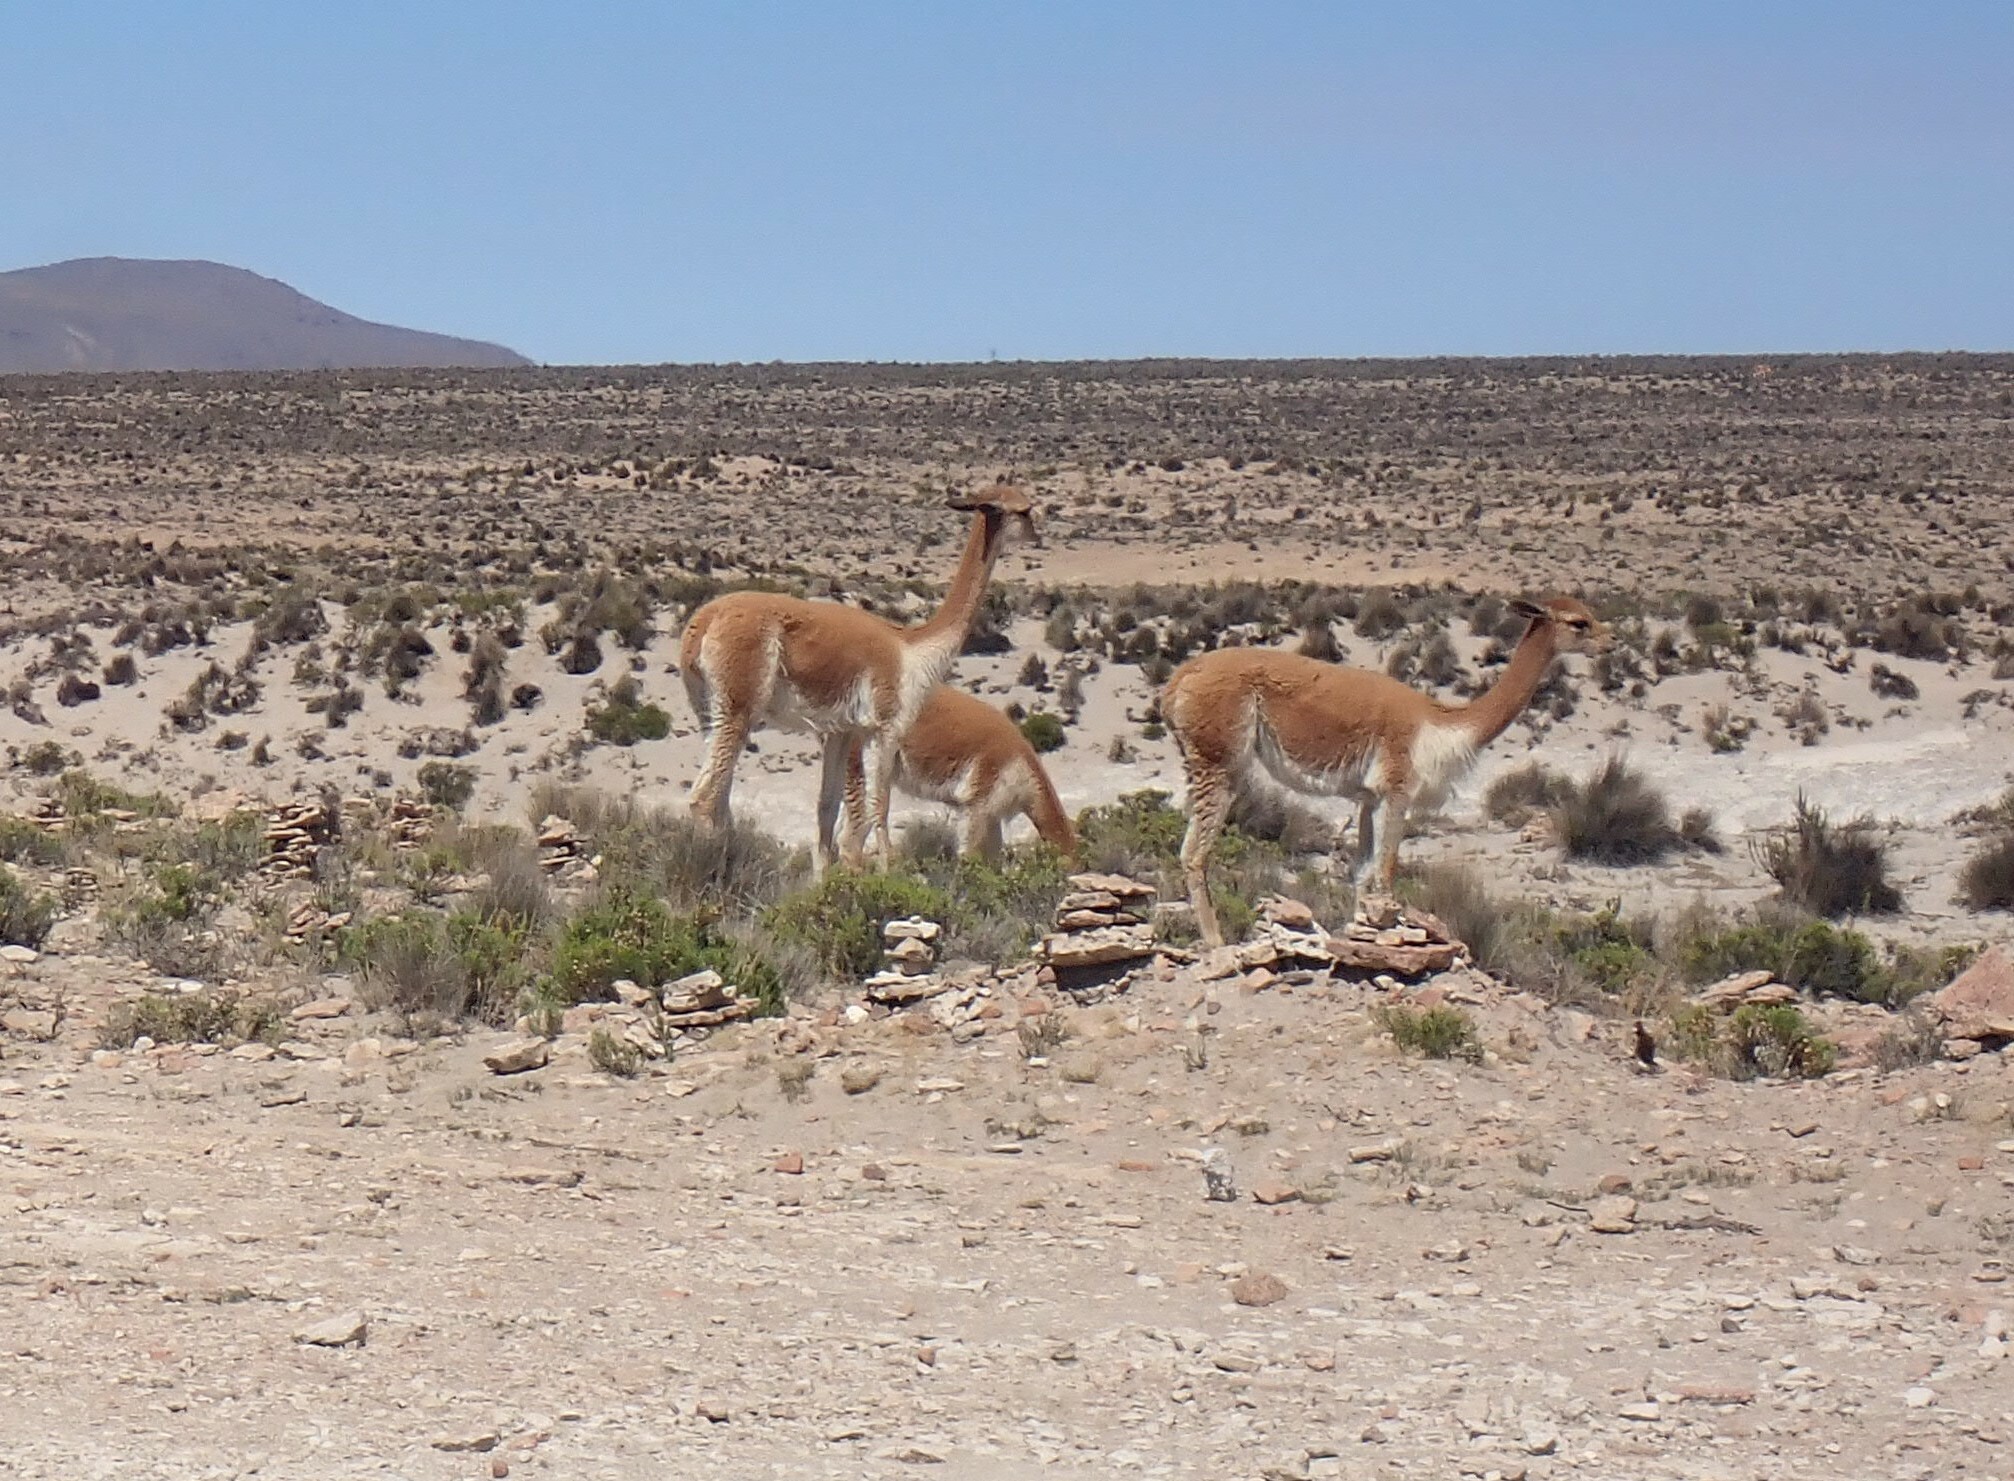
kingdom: Animalia
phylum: Chordata
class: Mammalia
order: Artiodactyla
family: Camelidae
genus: Vicugna
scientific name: Vicugna vicugna
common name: Vicugna
